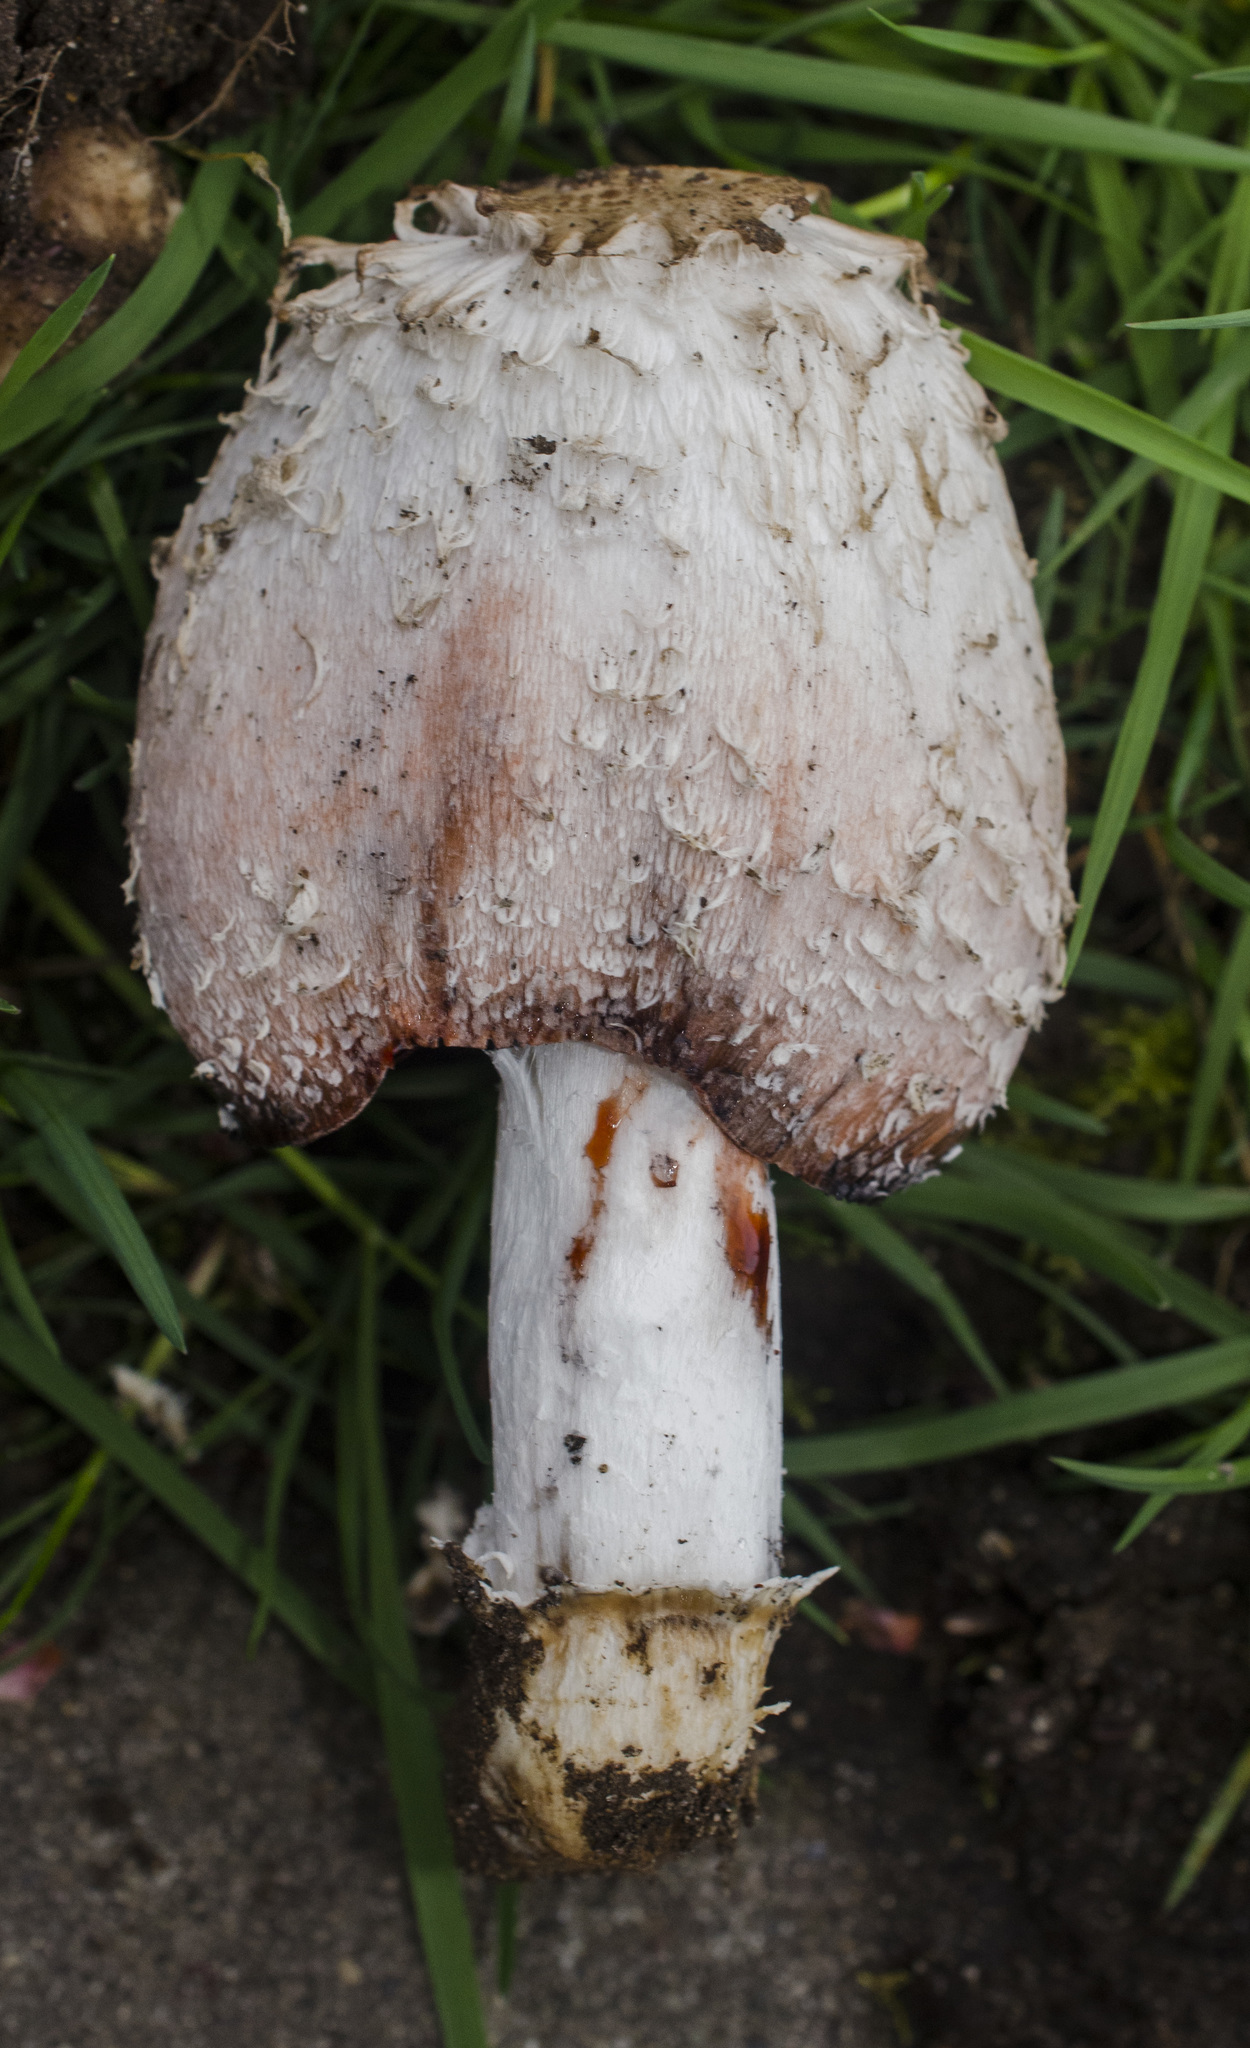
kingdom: Fungi
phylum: Basidiomycota
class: Agaricomycetes
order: Agaricales
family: Agaricaceae
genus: Coprinus
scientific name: Coprinus comatus
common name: Lawyer's wig
